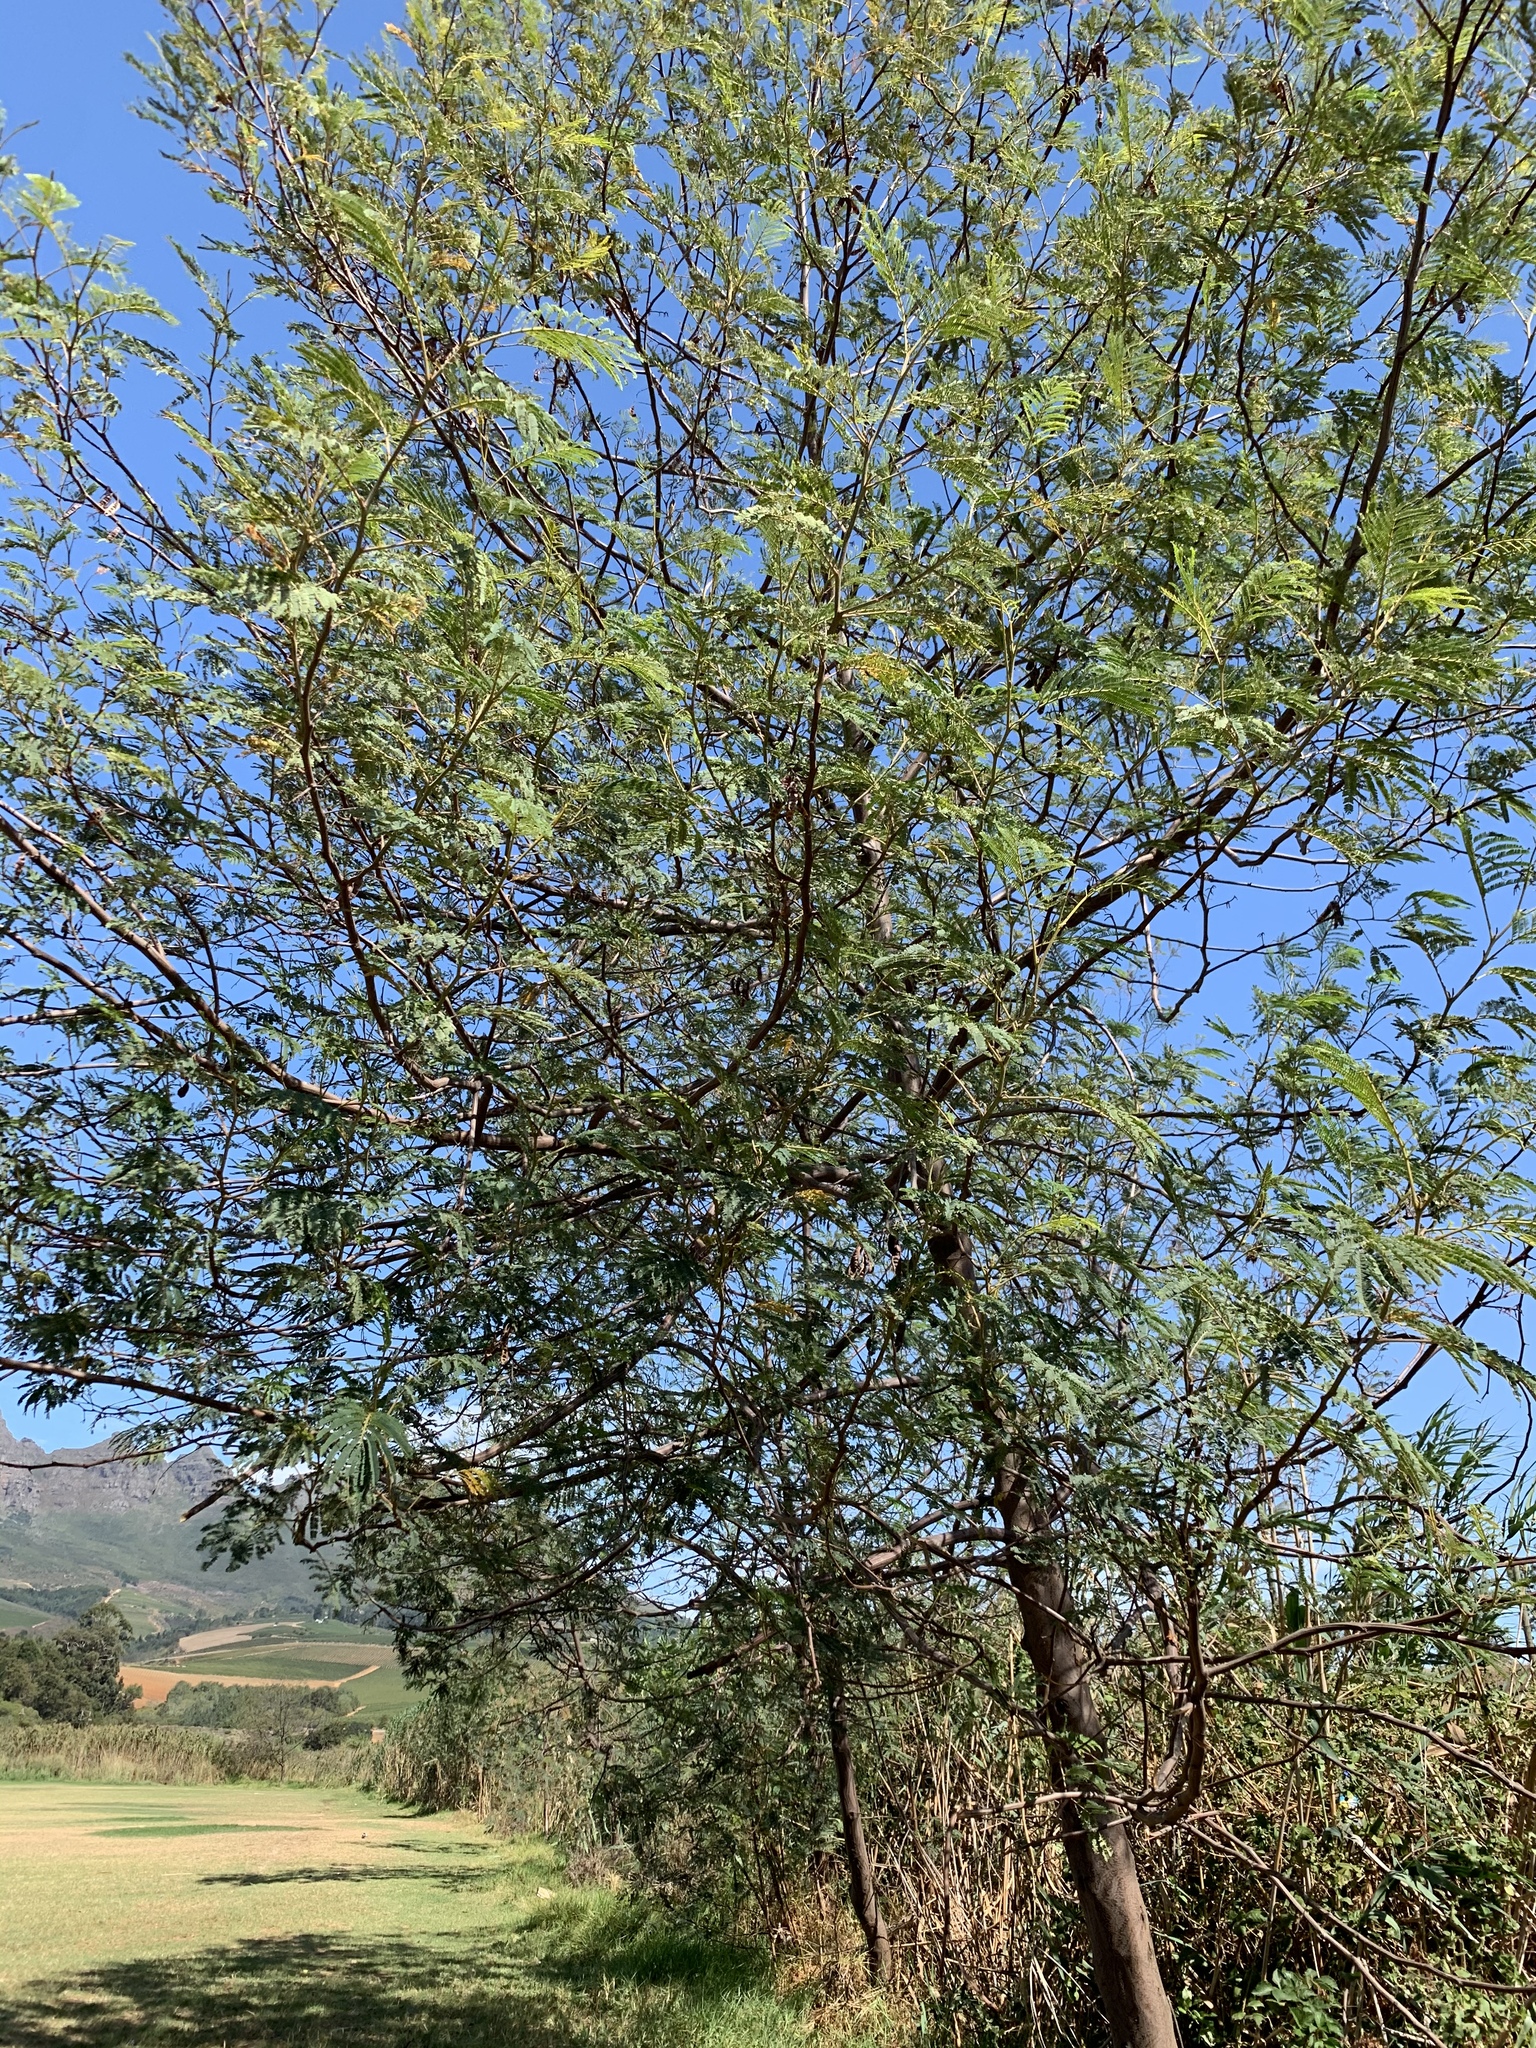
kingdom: Plantae
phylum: Tracheophyta
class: Magnoliopsida
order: Fabales
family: Fabaceae
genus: Paraserianthes
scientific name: Paraserianthes lophantha
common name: Plume albizia
